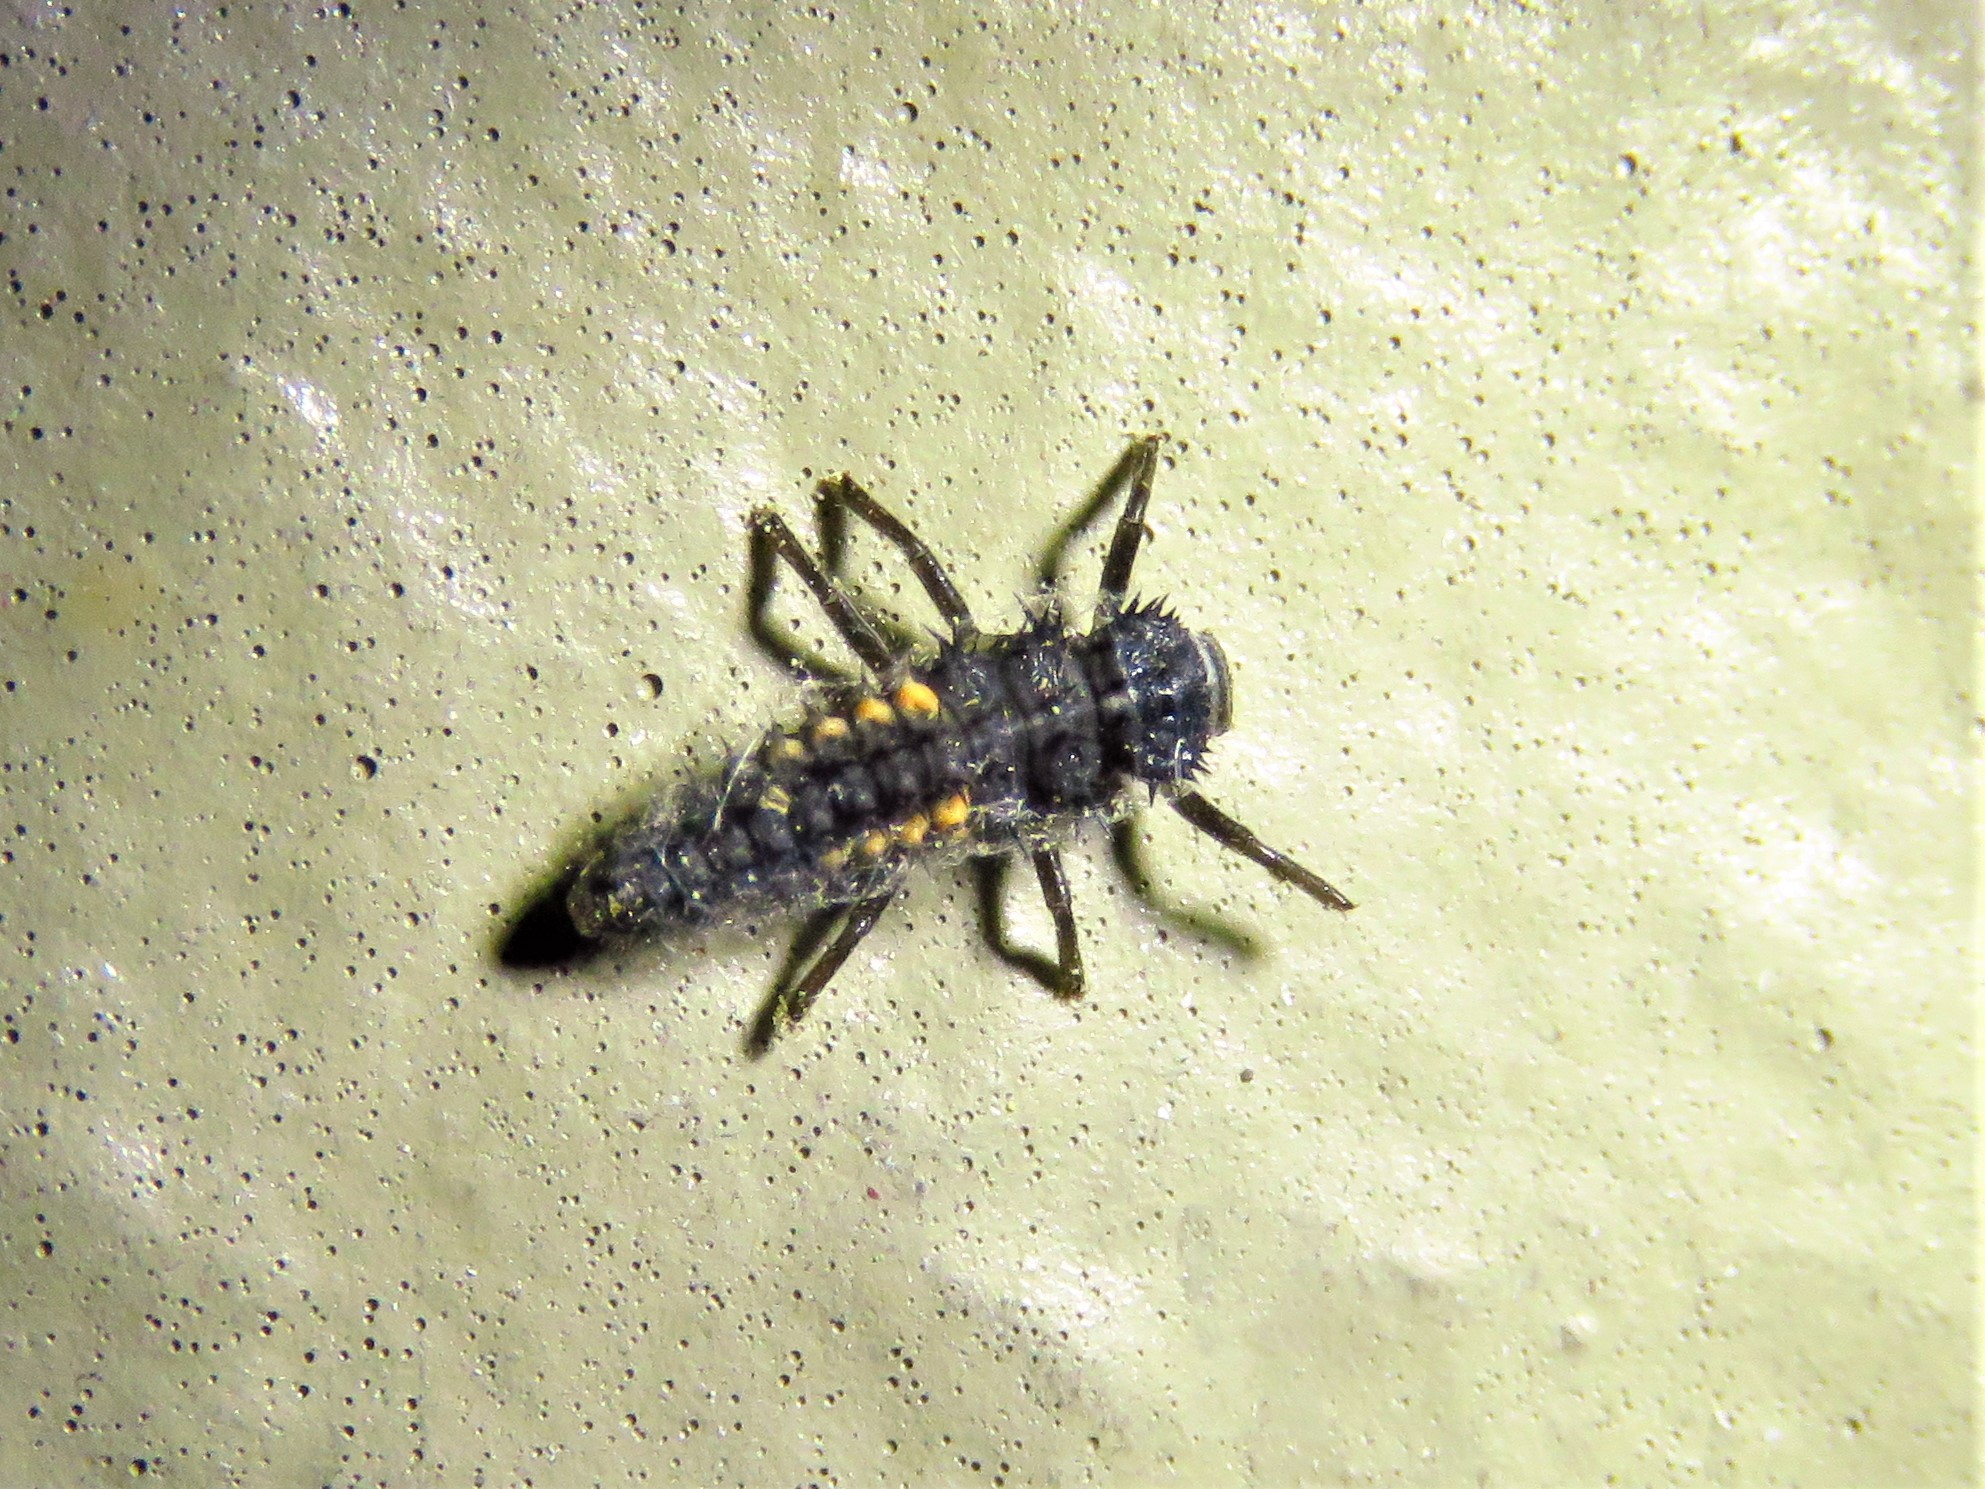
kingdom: Animalia
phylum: Arthropoda
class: Insecta
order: Coleoptera
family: Coccinellidae
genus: Harmonia
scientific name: Harmonia axyridis
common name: Harlequin ladybird
